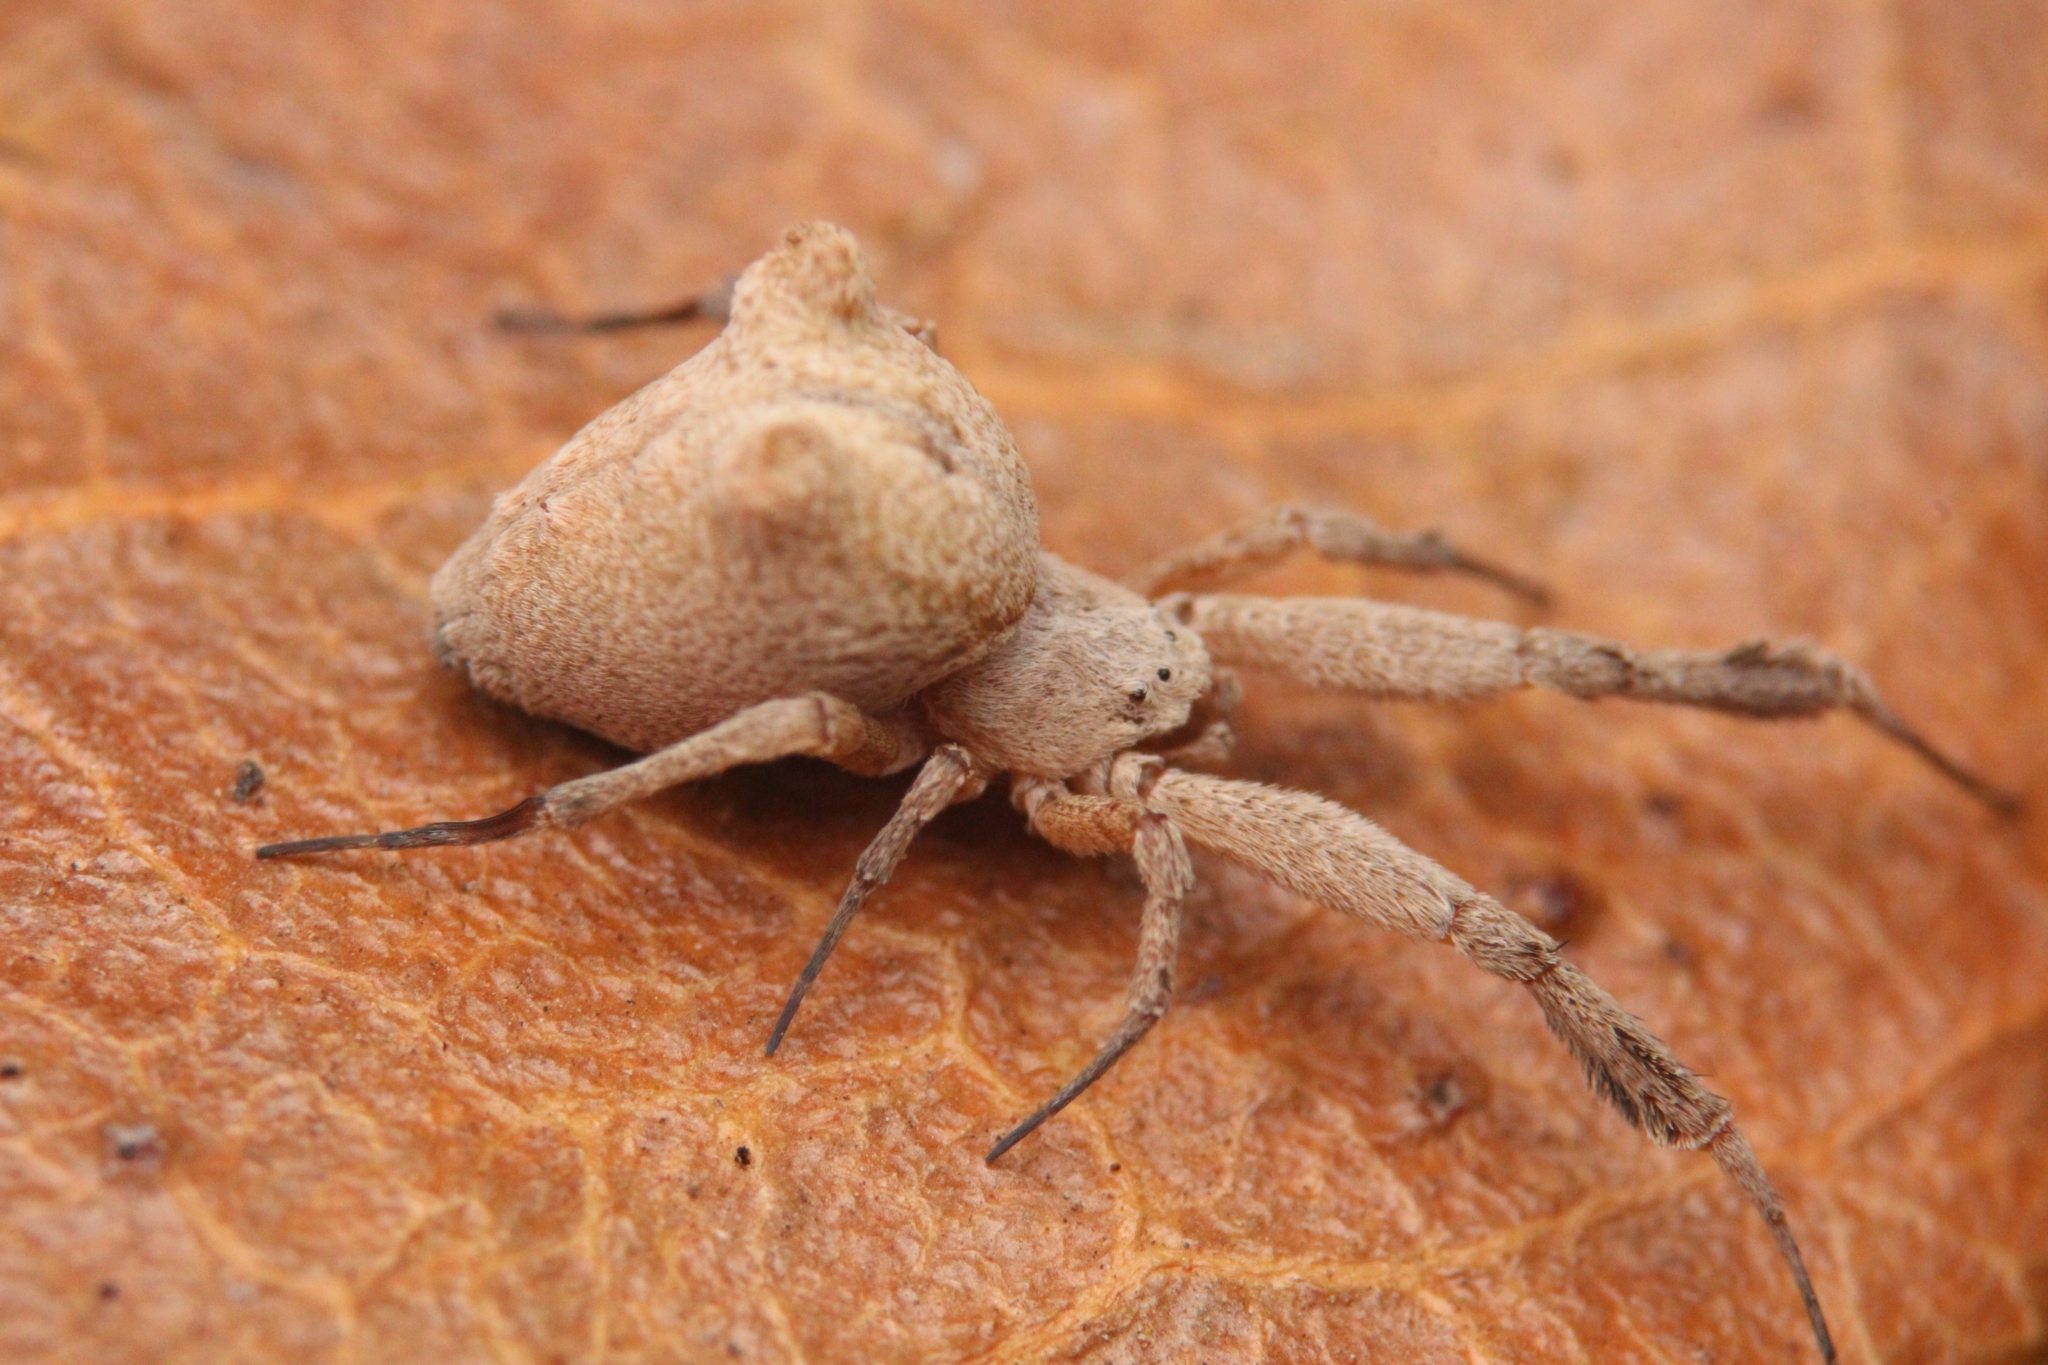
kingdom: Animalia
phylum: Arthropoda
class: Arachnida
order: Araneae
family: Uloboridae
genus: Uloborus
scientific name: Uloborus plumipes
